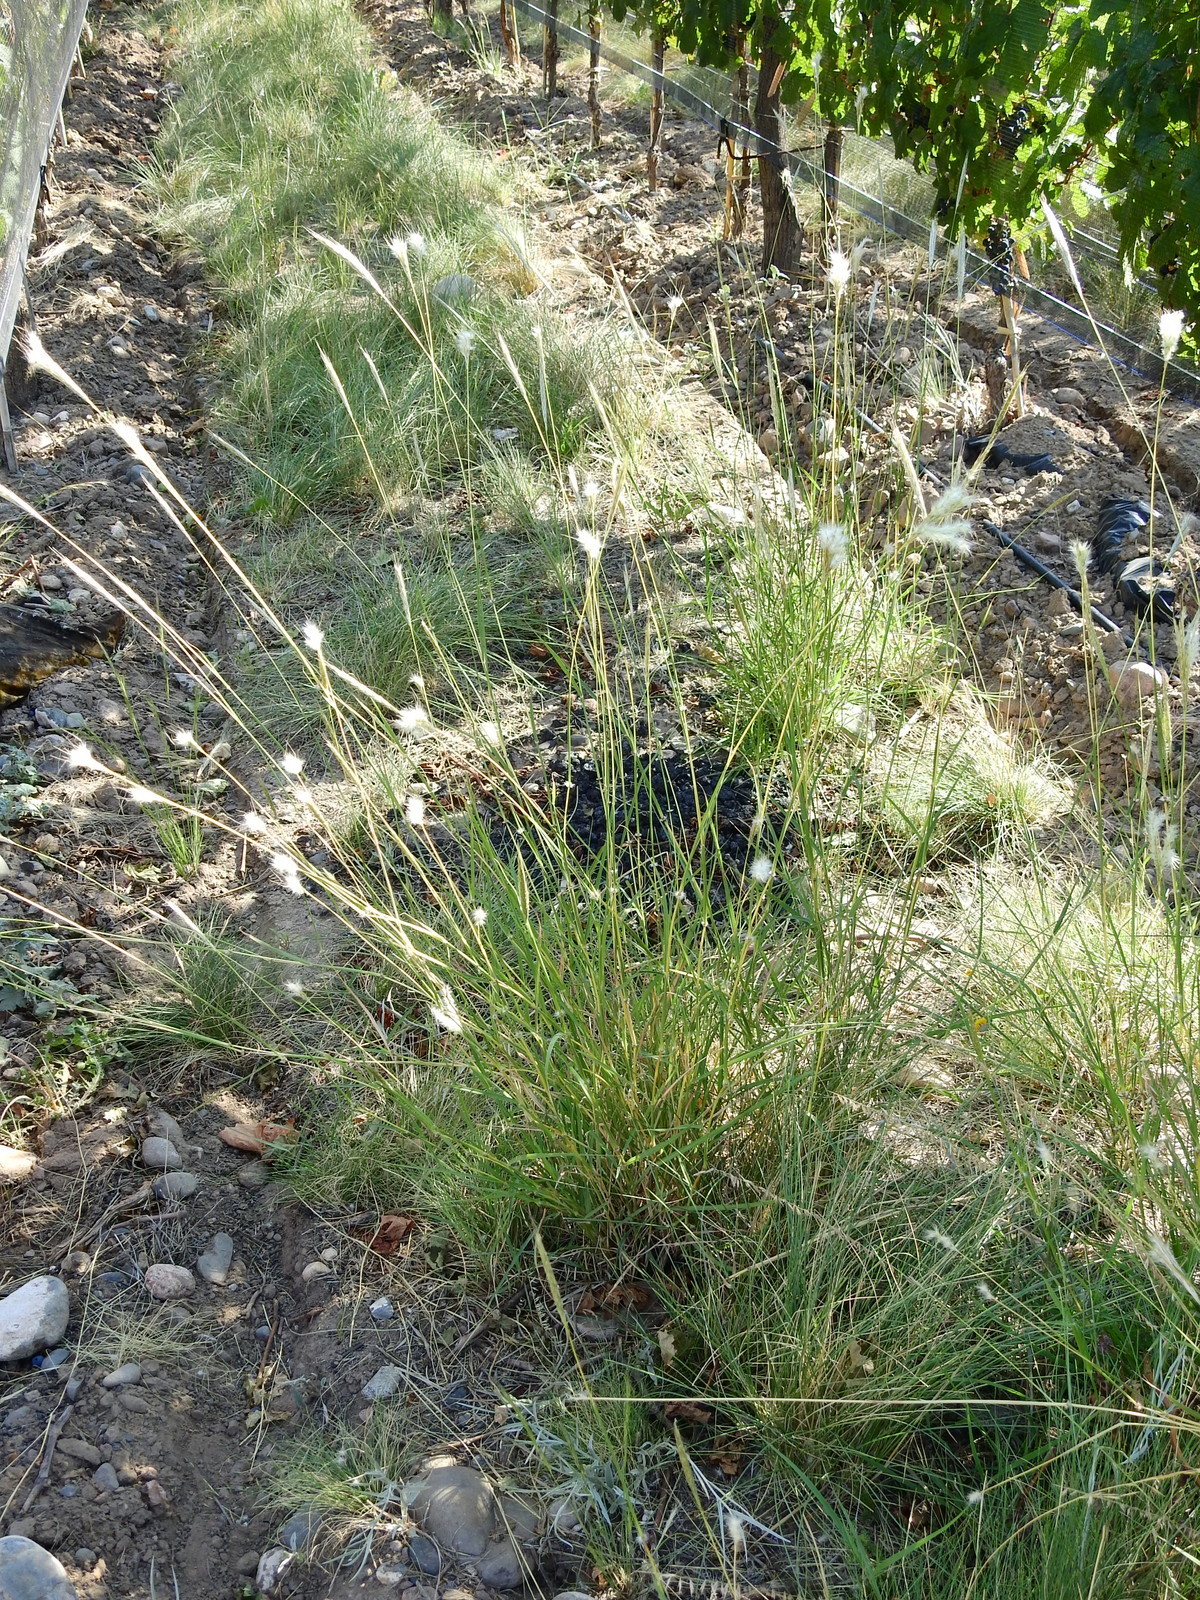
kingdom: Plantae
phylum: Tracheophyta
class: Liliopsida
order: Poales
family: Poaceae
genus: Bothriochloa
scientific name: Bothriochloa barbinodis
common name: Cane bluestem
